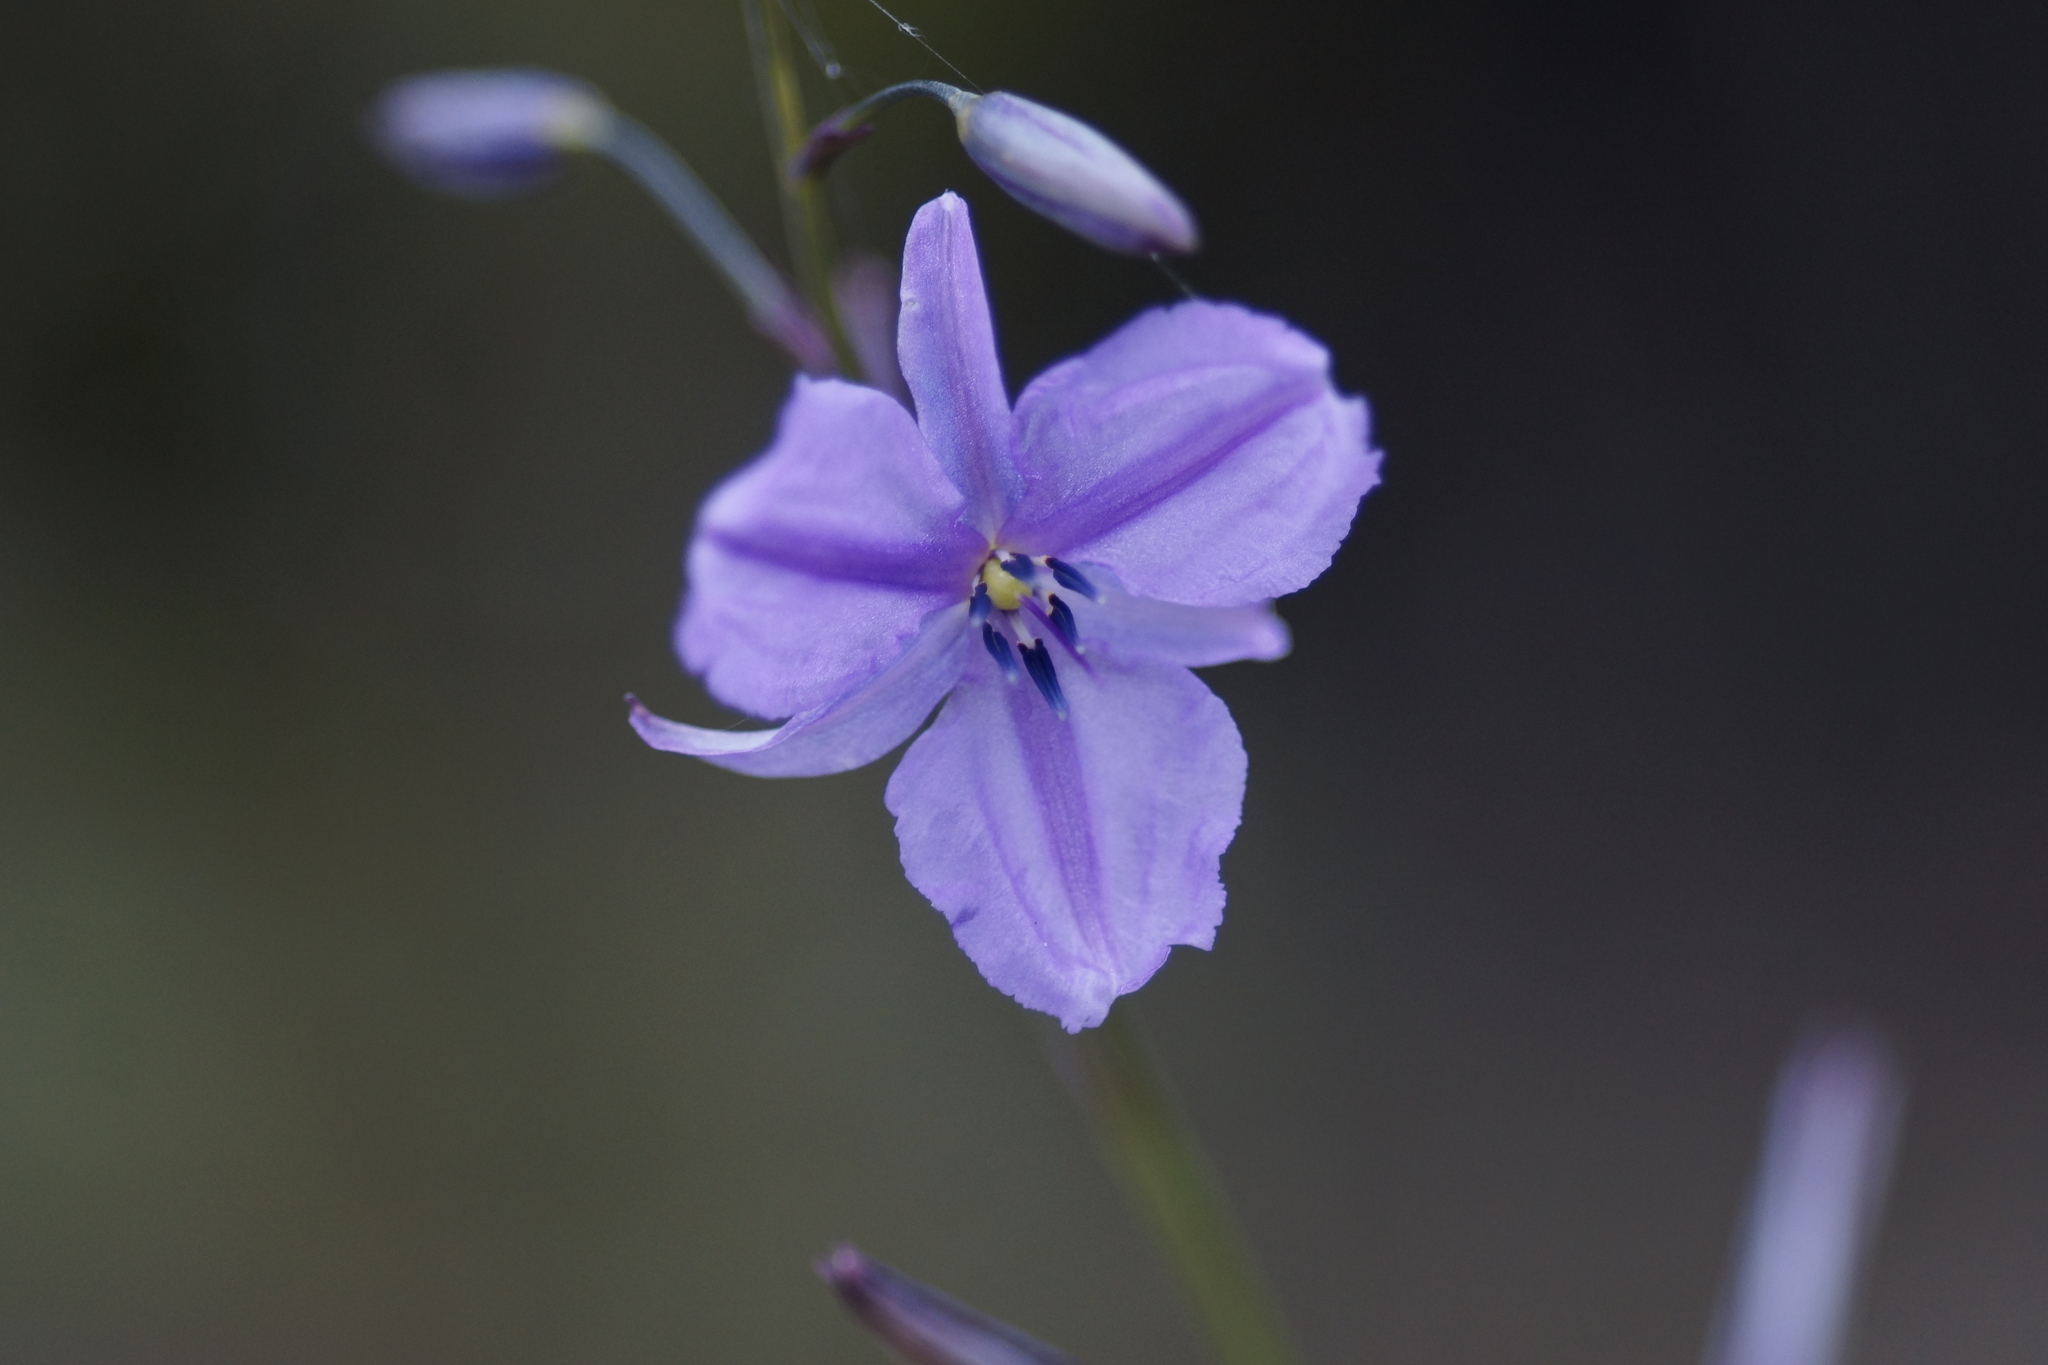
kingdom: Plantae
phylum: Tracheophyta
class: Liliopsida
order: Asparagales
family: Asparagaceae
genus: Arthropodium
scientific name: Arthropodium strictum
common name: Chocolate-lily
